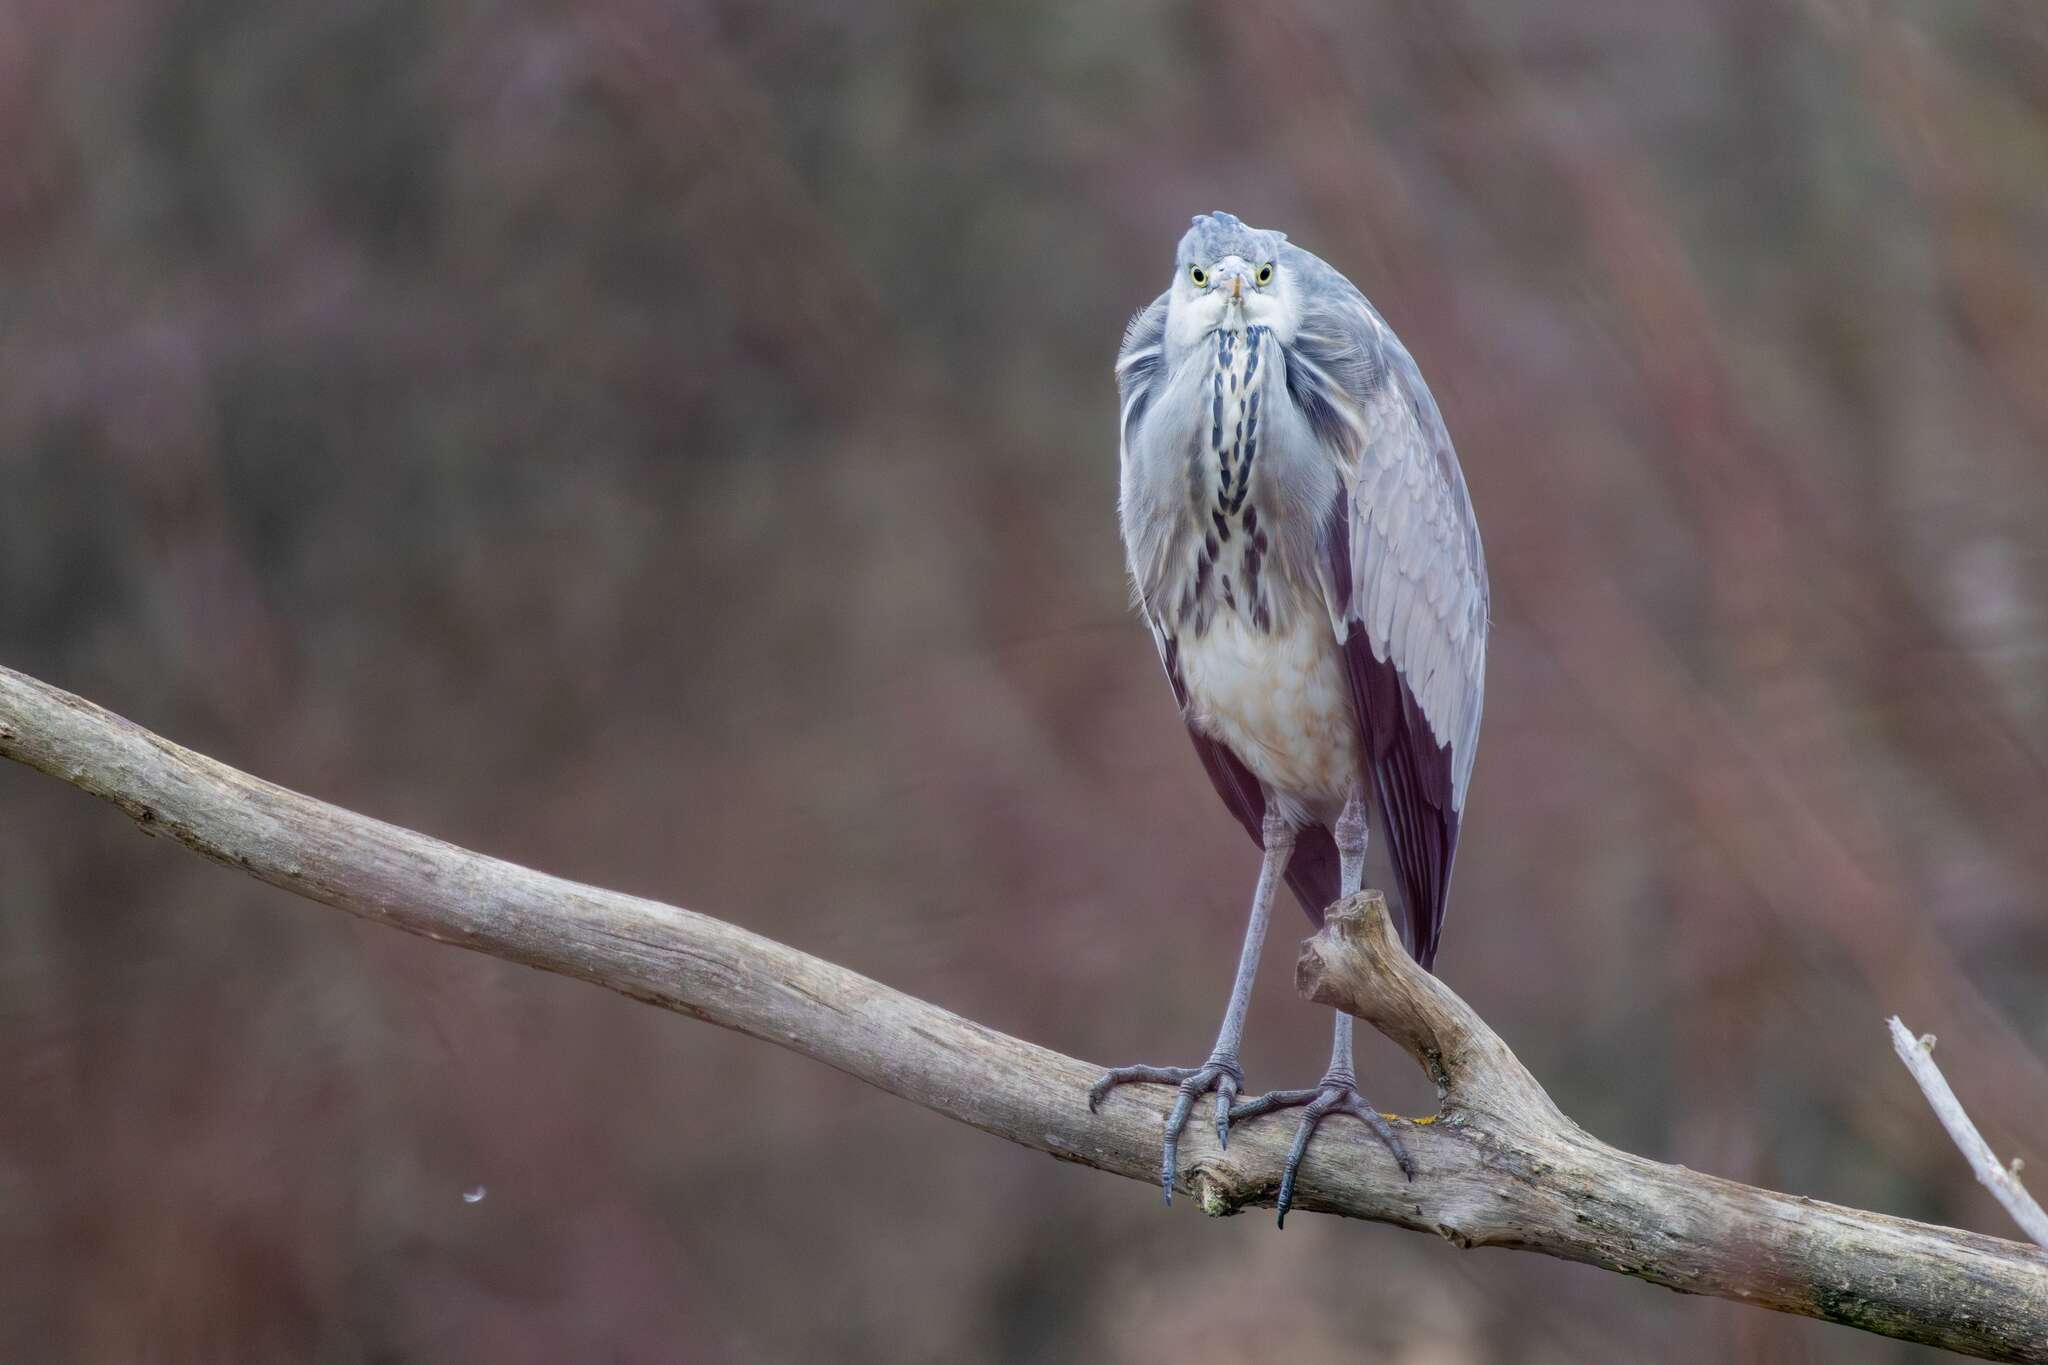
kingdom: Animalia
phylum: Chordata
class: Aves
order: Pelecaniformes
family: Ardeidae
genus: Ardea
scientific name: Ardea cinerea
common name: Grey heron
